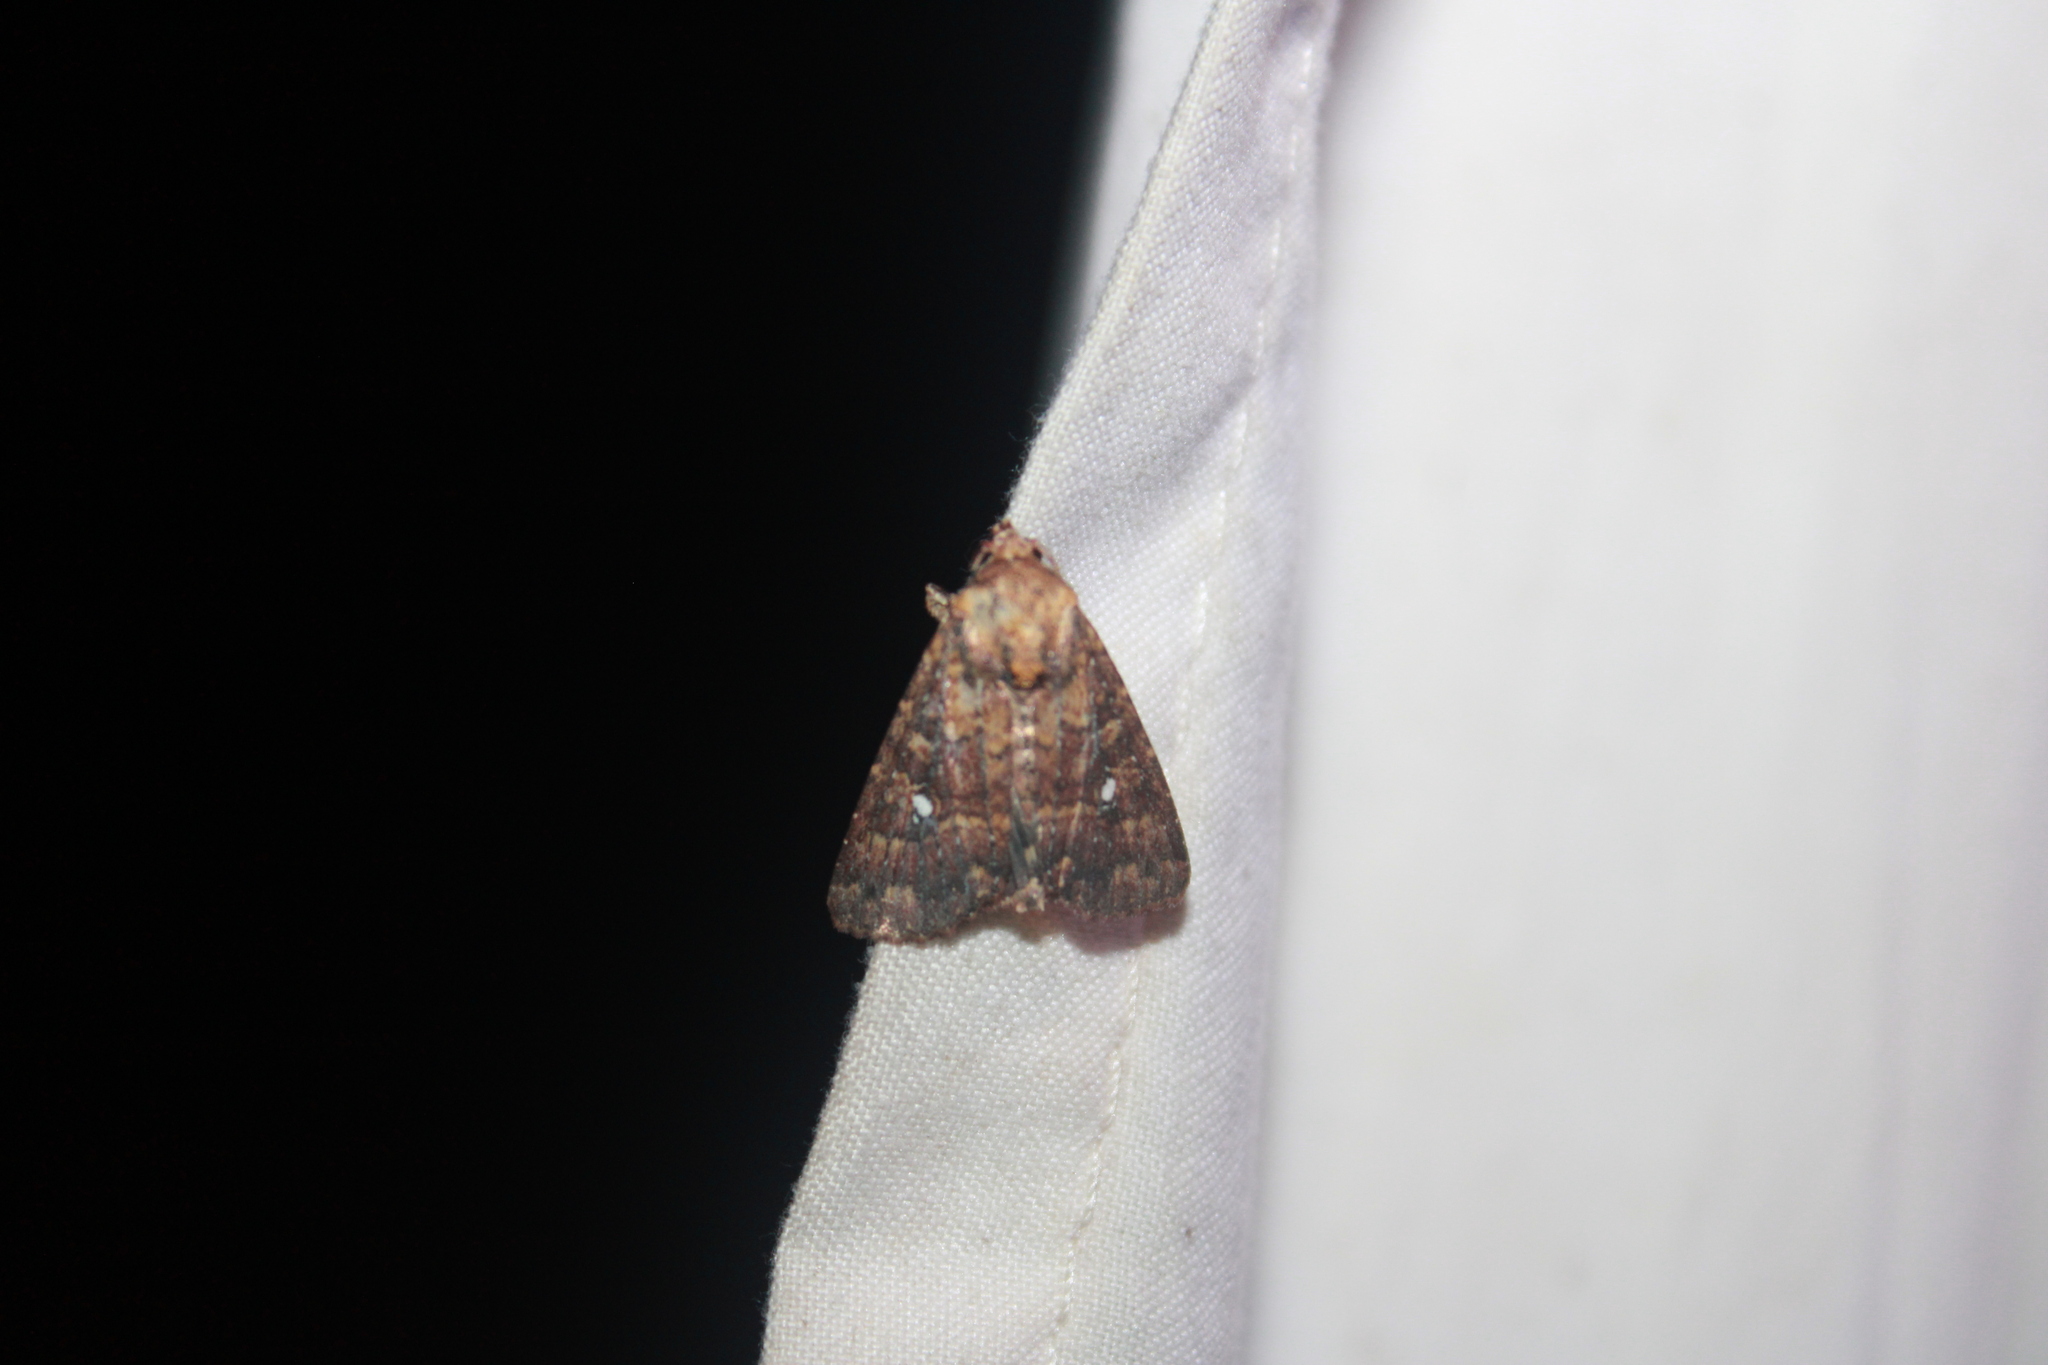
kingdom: Animalia
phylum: Arthropoda
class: Insecta
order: Lepidoptera
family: Noctuidae
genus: Condica
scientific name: Condica mobilis
